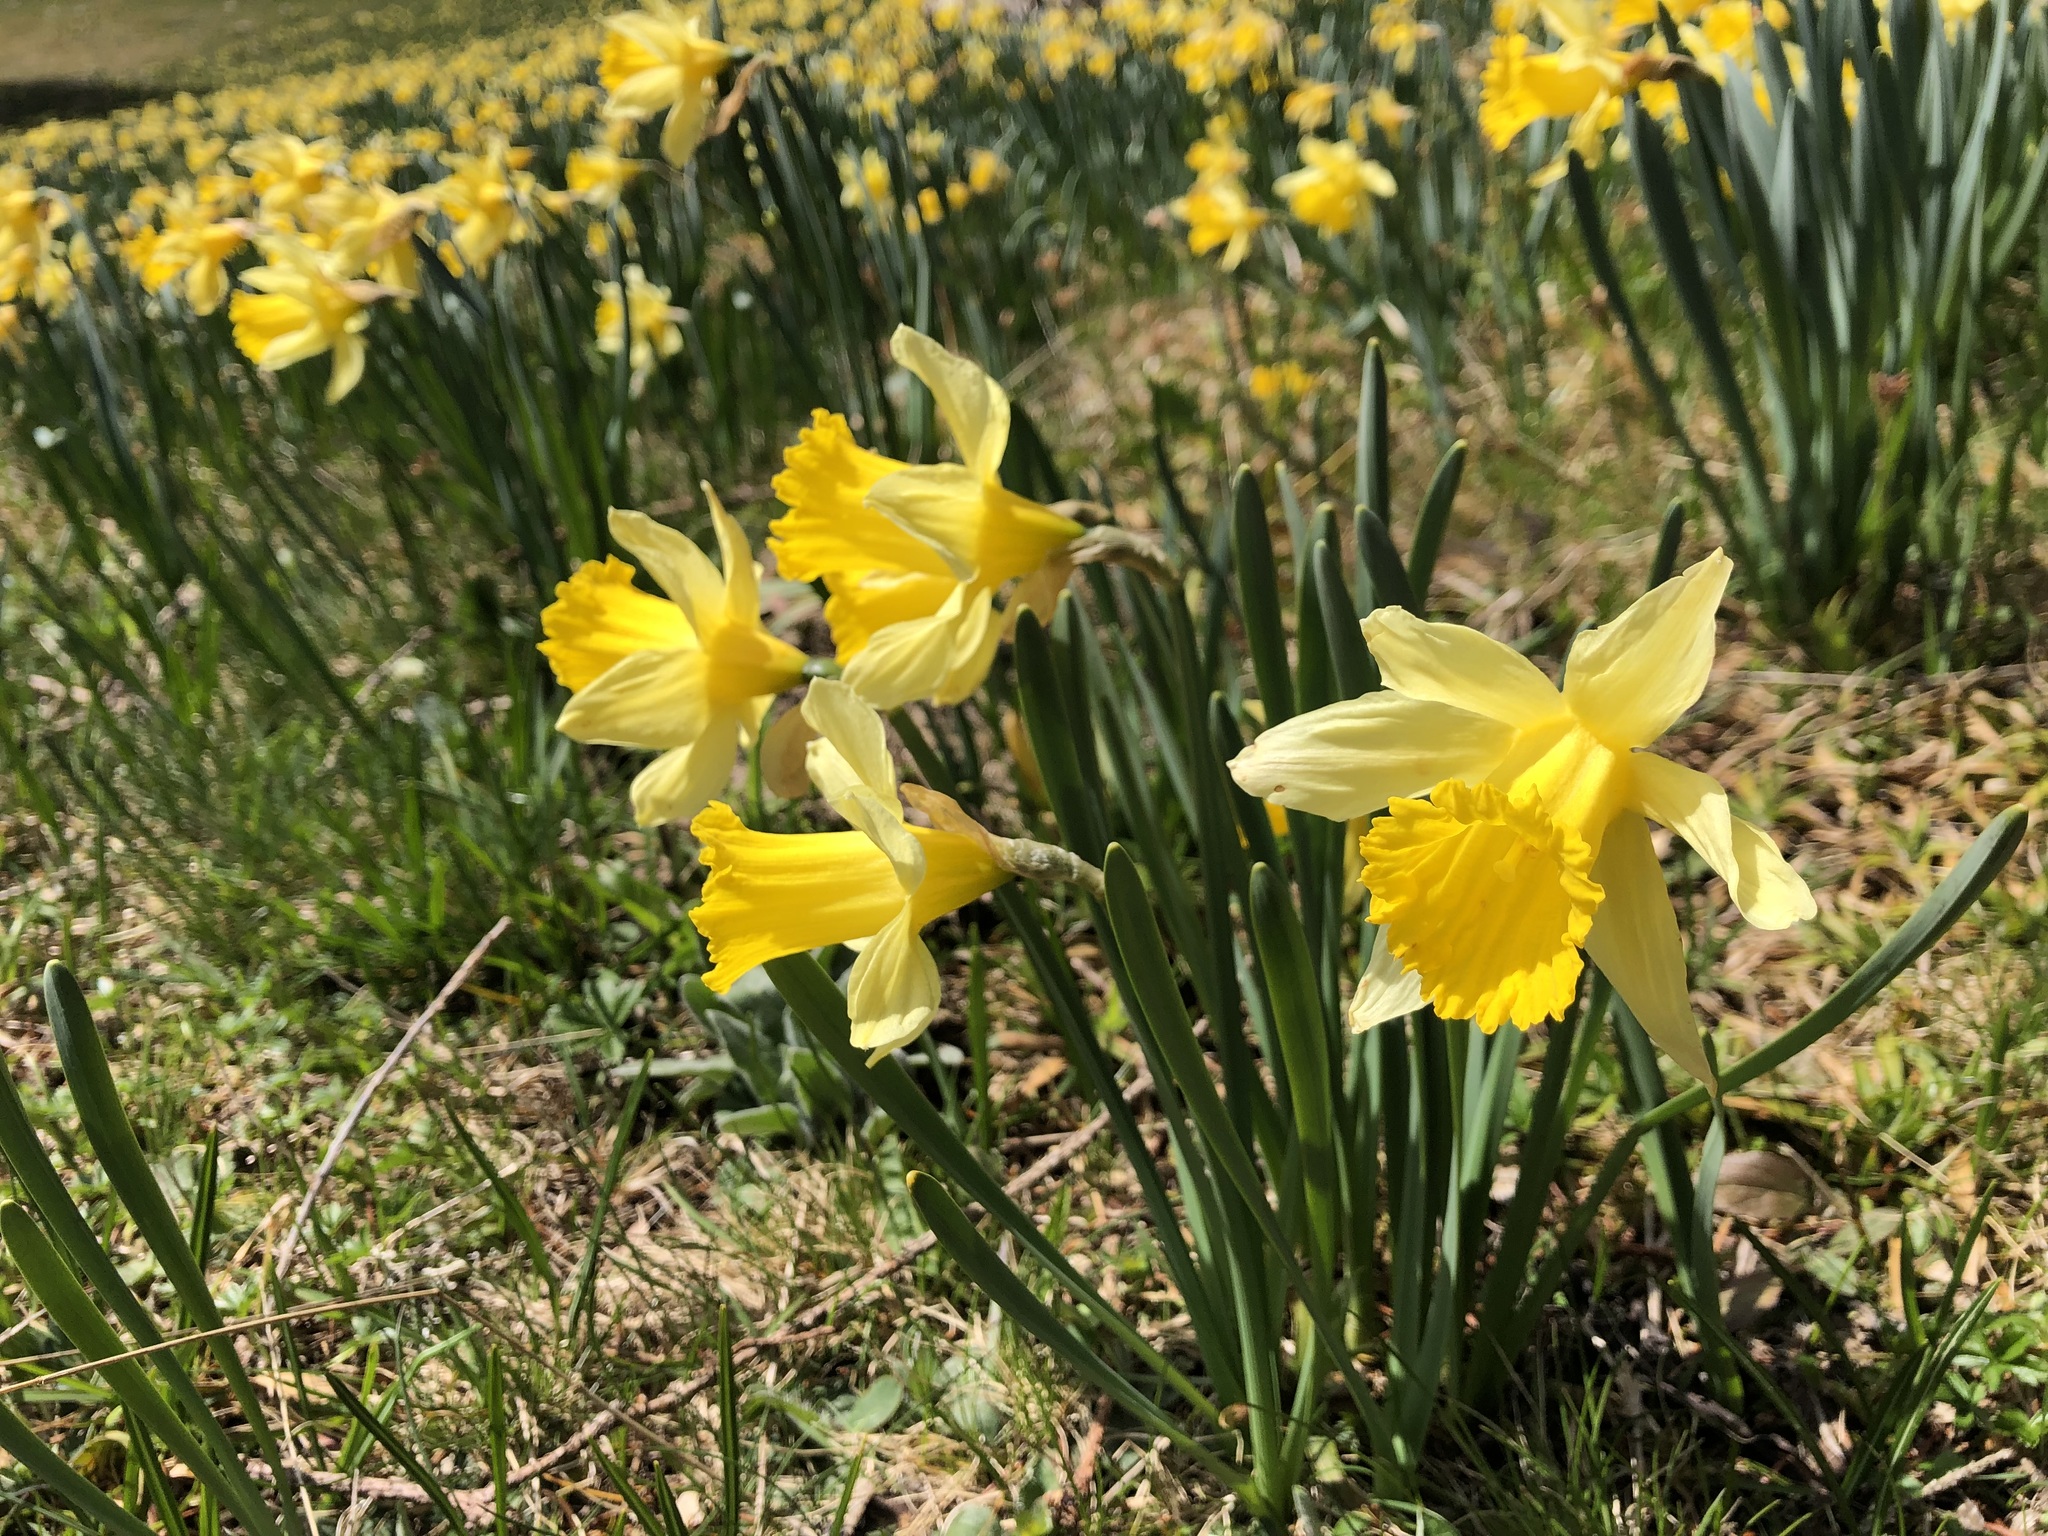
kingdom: Plantae
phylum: Tracheophyta
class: Liliopsida
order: Asparagales
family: Amaryllidaceae
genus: Narcissus
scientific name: Narcissus pseudonarcissus
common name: Daffodil
